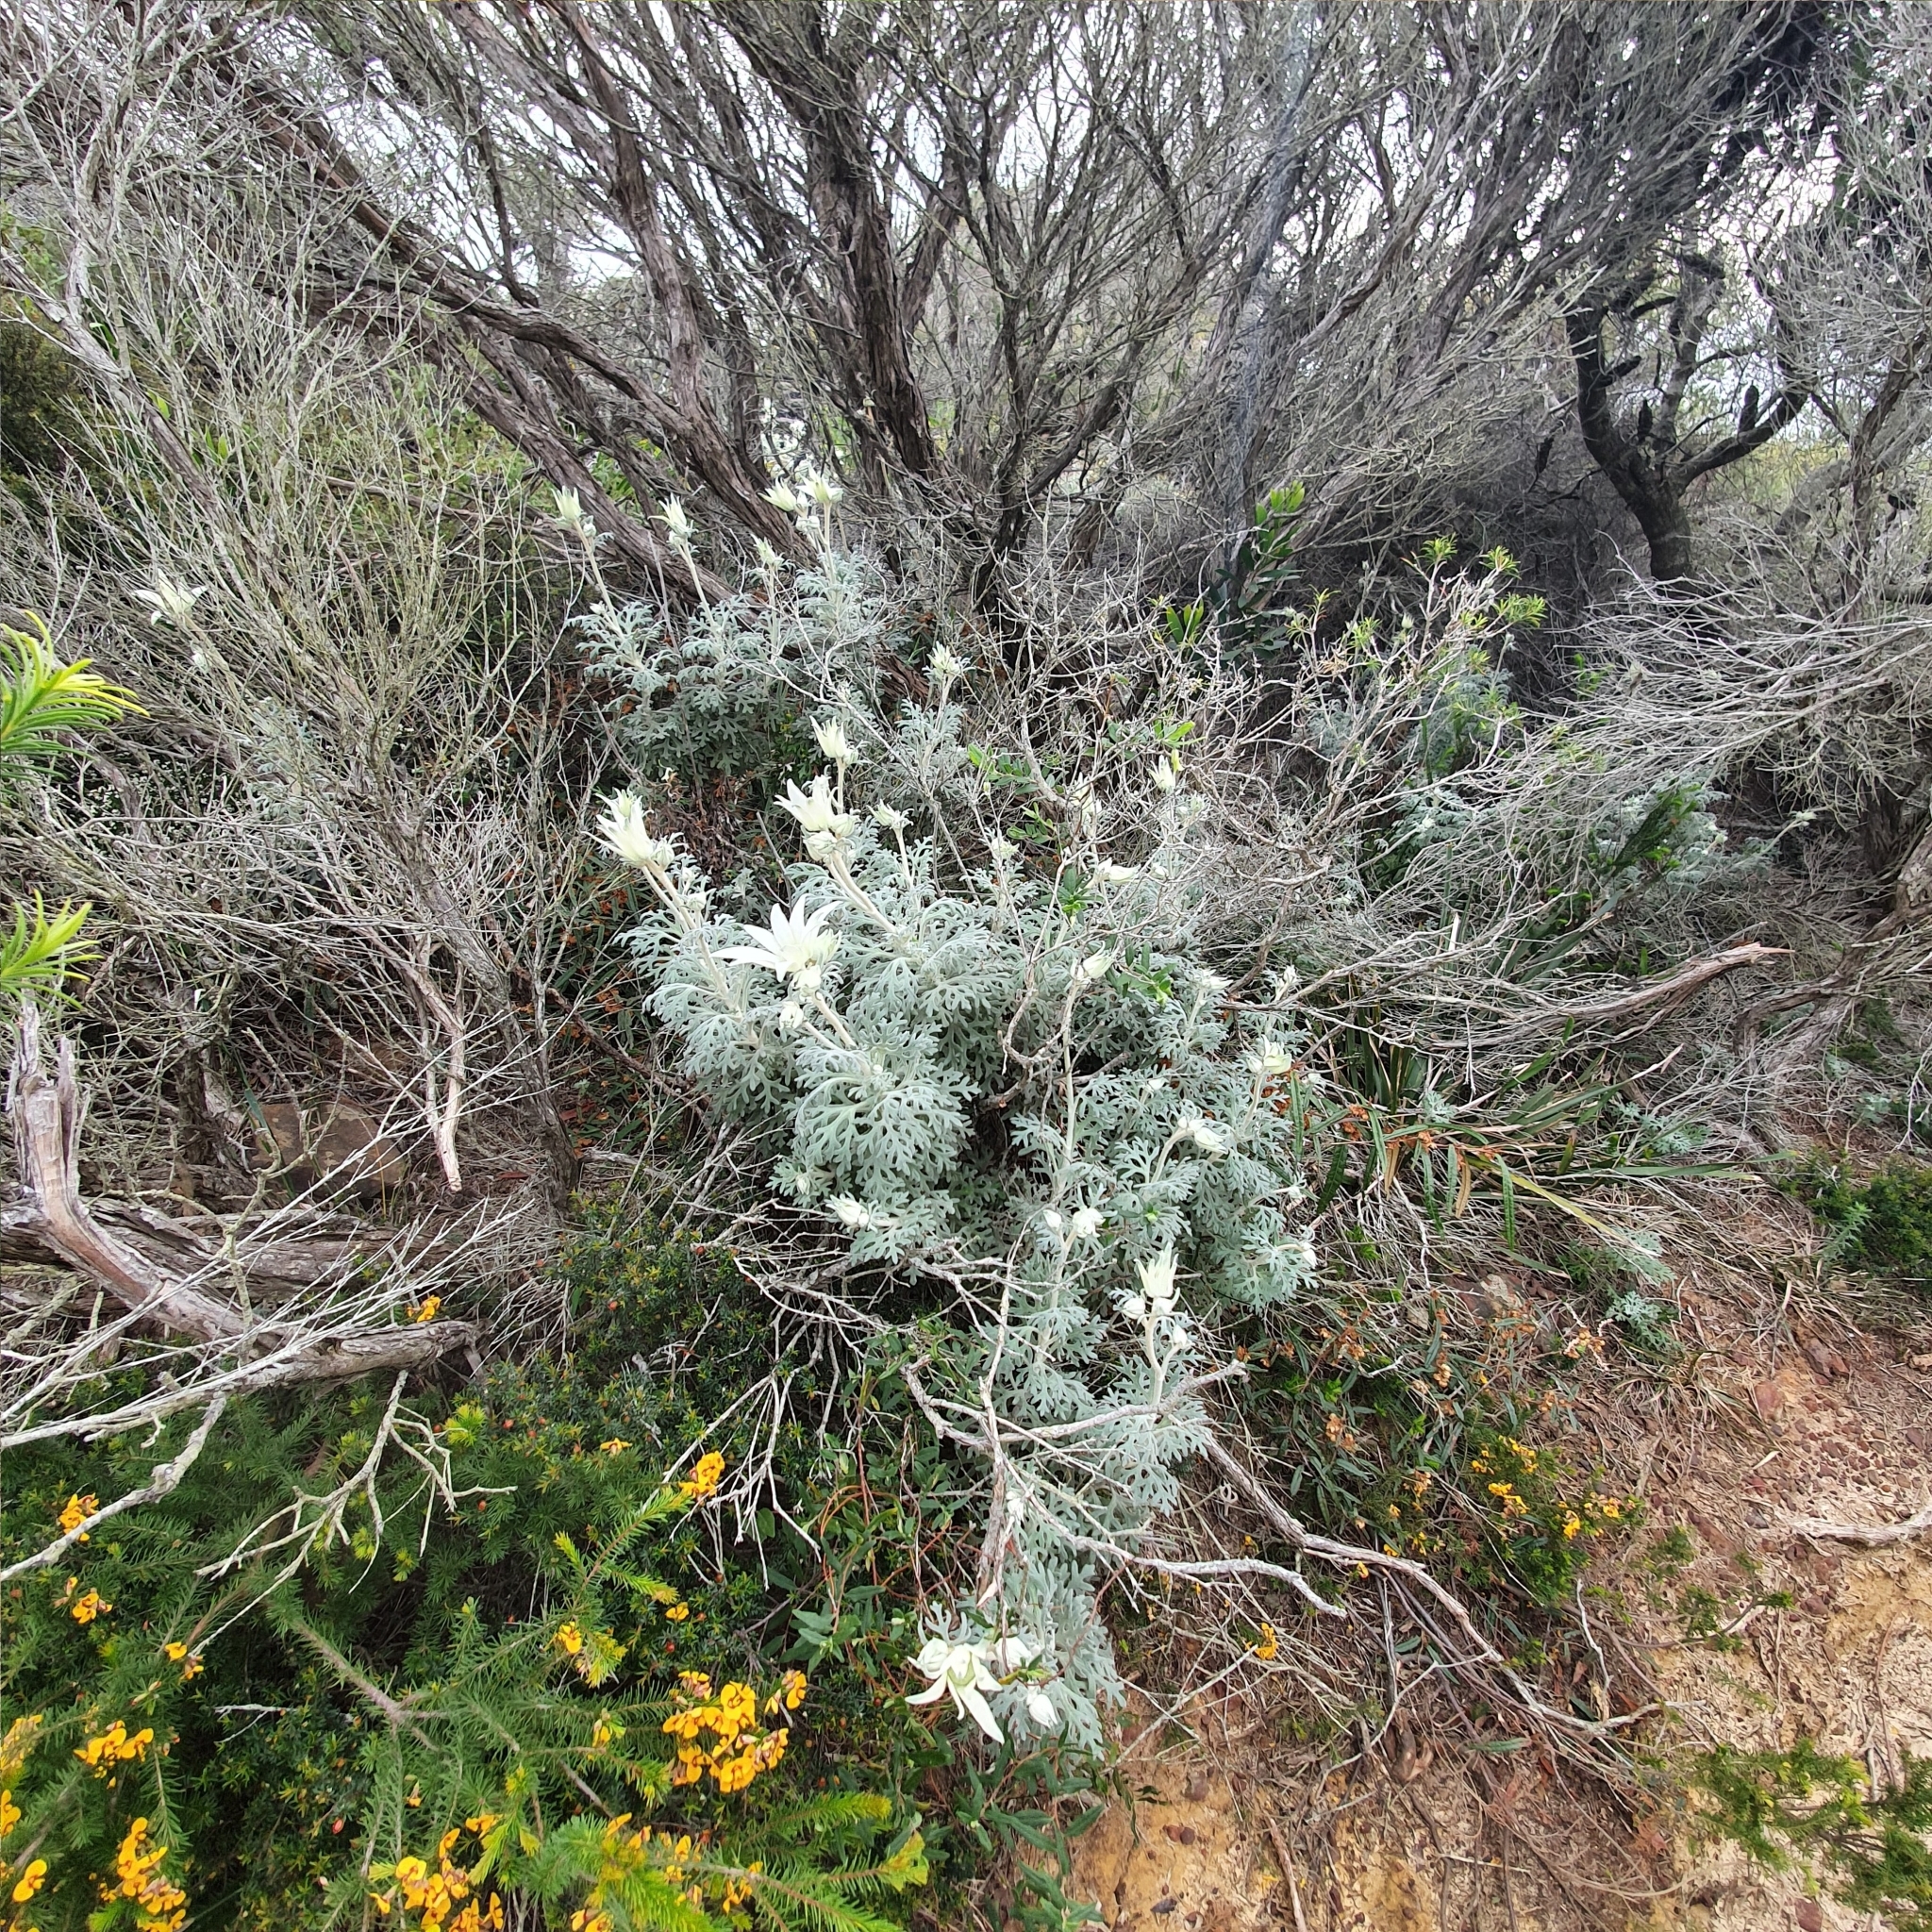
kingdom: Plantae
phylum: Tracheophyta
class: Magnoliopsida
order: Apiales
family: Apiaceae
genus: Actinotus
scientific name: Actinotus helianthi
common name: Flannel-flower
